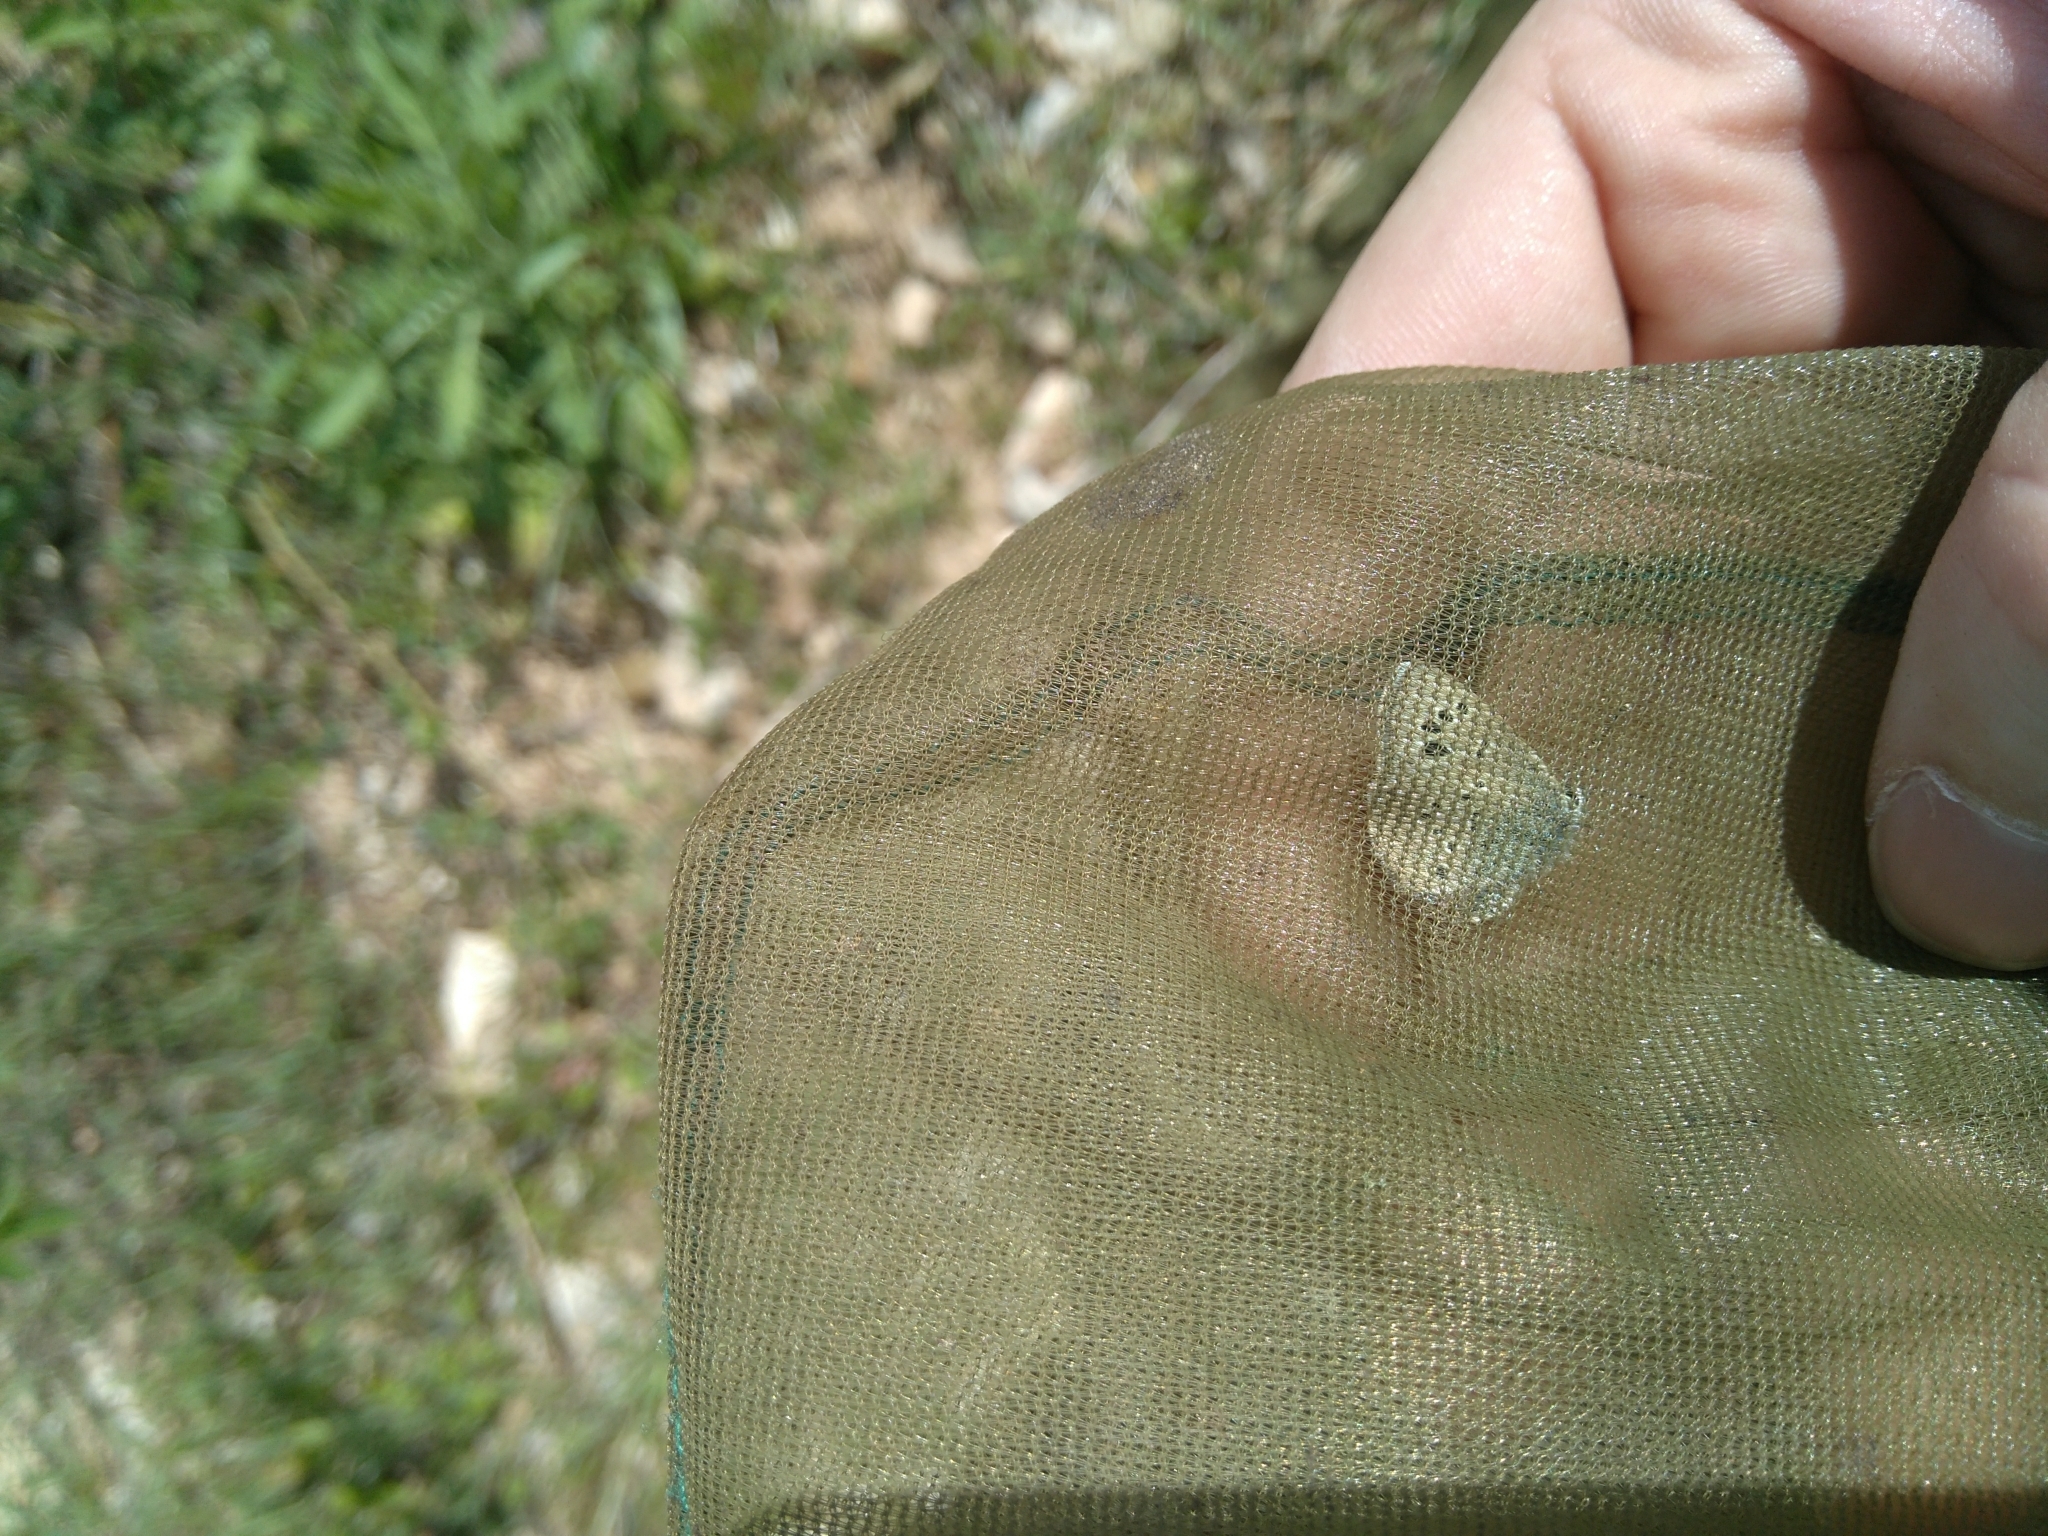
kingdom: Animalia
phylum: Arthropoda
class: Insecta
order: Lepidoptera
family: Lycaenidae
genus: Glaucopsyche
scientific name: Glaucopsyche melanops
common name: Black-eyed blue
